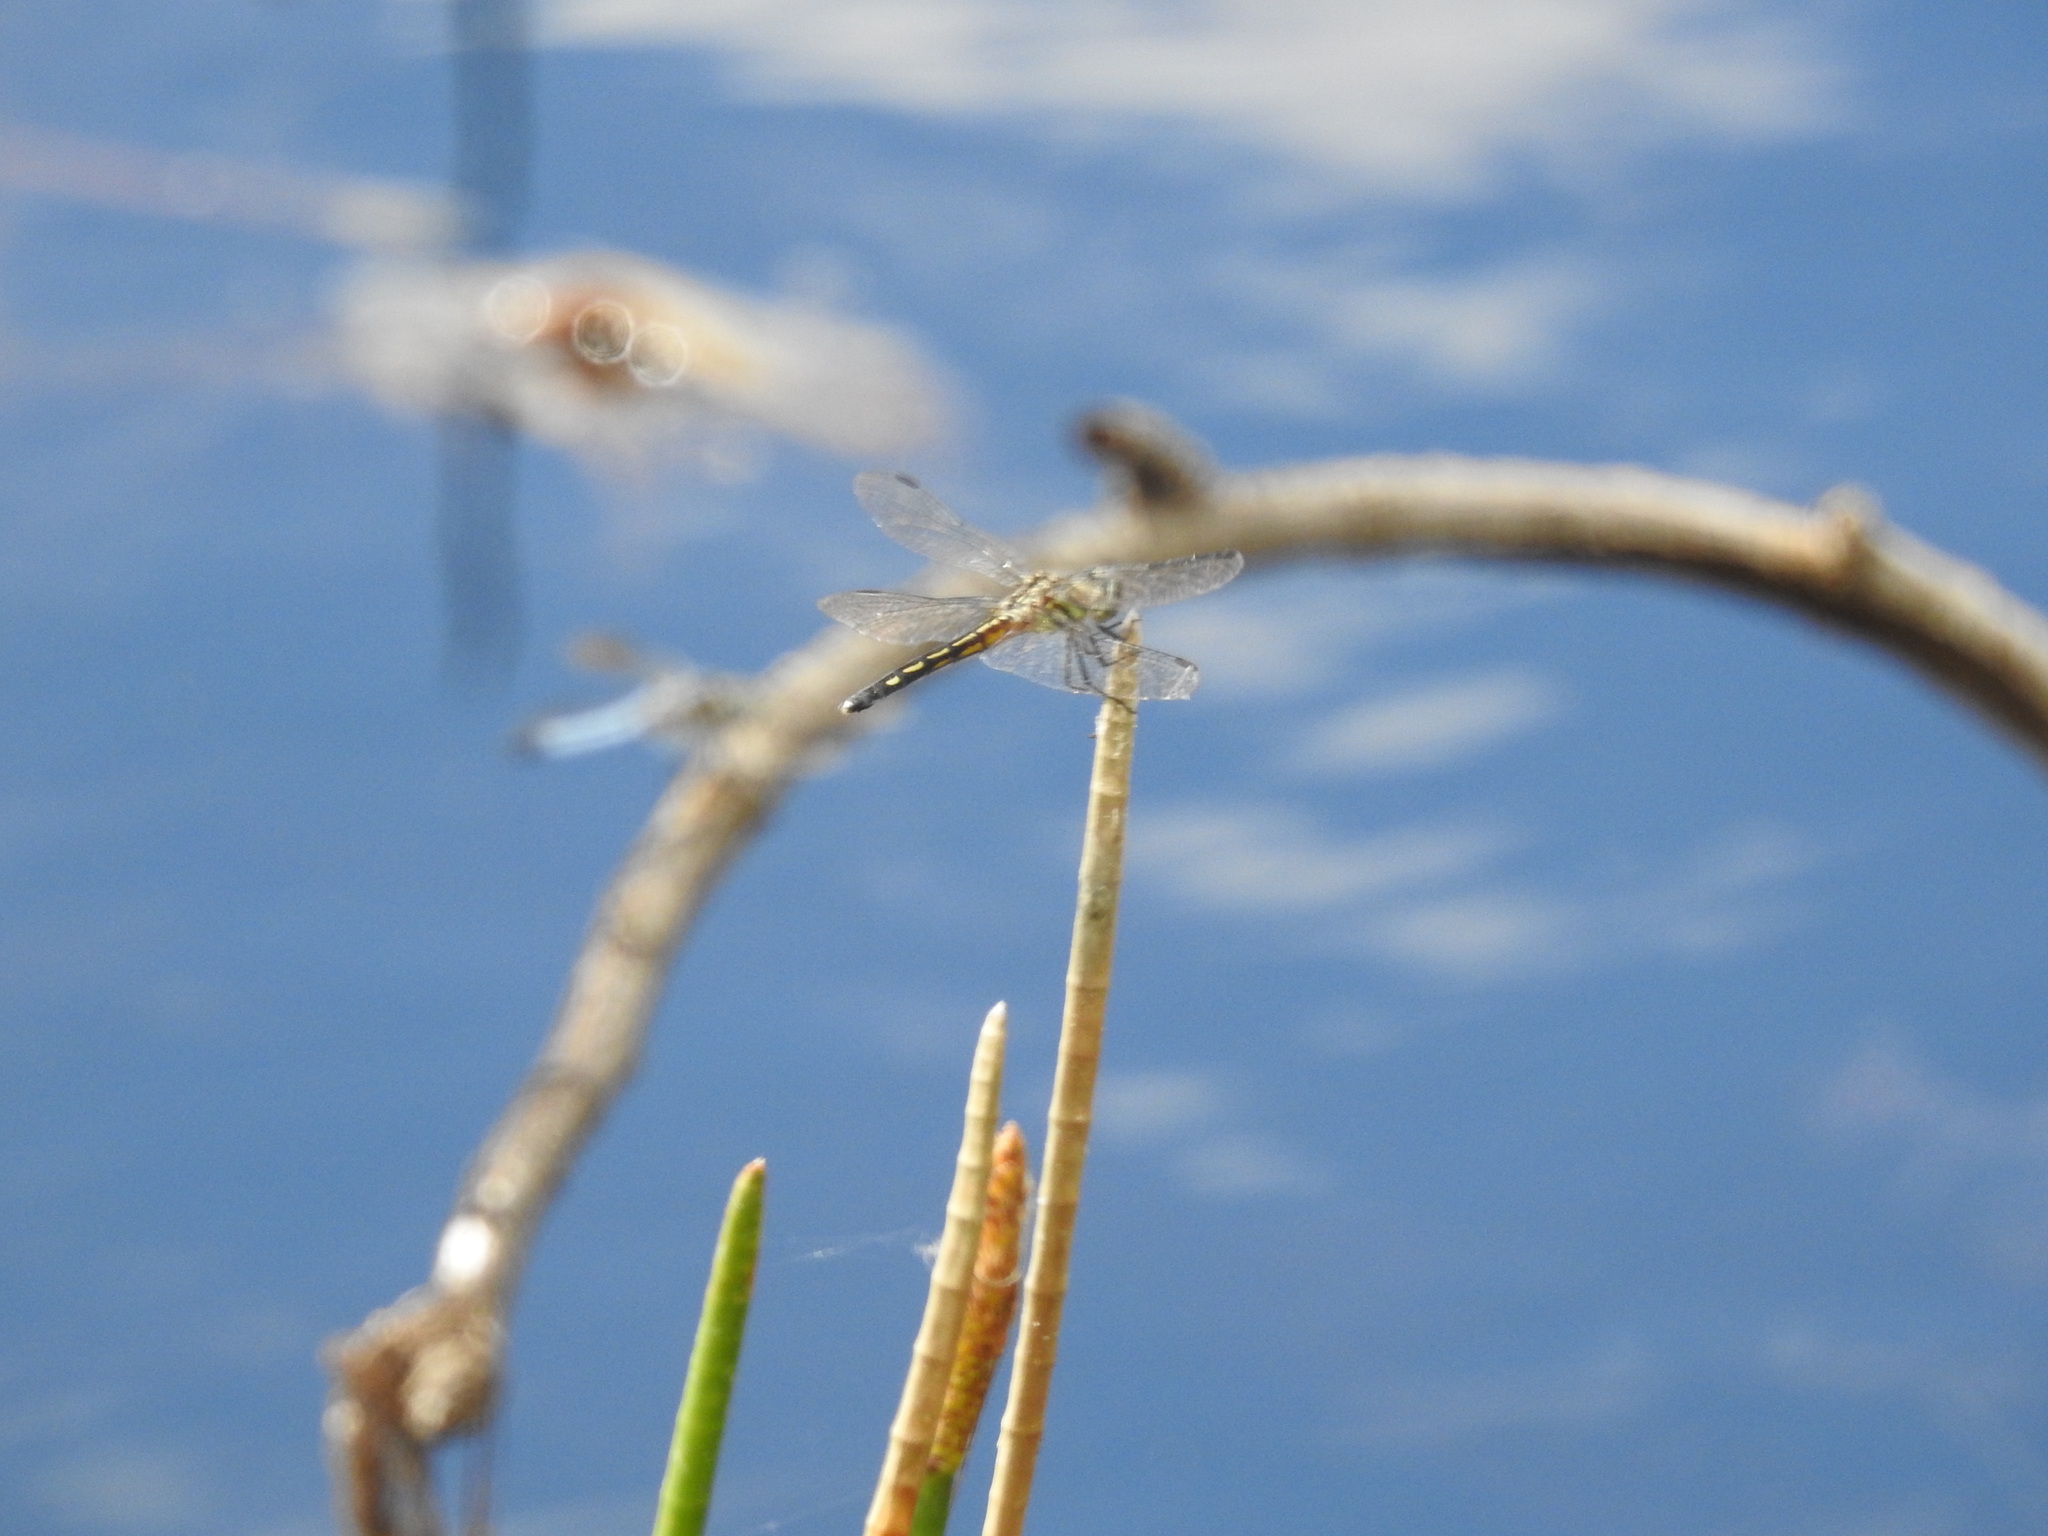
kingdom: Animalia
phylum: Arthropoda
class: Insecta
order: Odonata
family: Libellulidae
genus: Pachydiplax
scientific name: Pachydiplax longipennis
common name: Blue dasher
